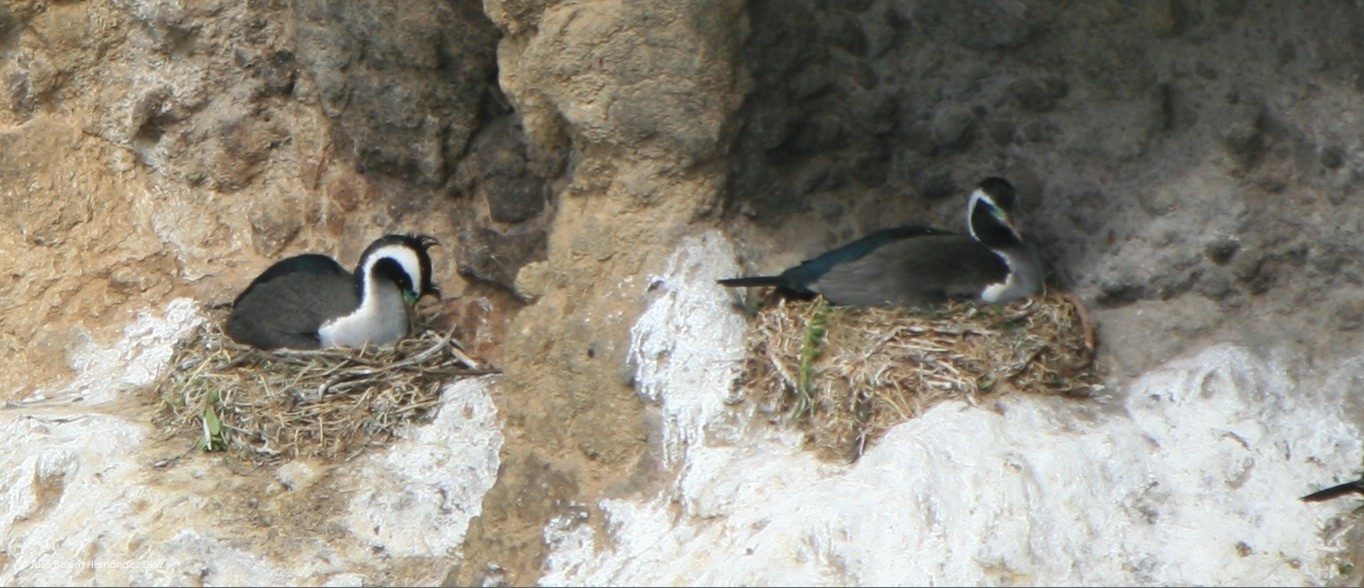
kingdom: Animalia
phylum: Chordata
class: Aves
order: Suliformes
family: Phalacrocoracidae
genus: Phalacrocorax
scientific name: Phalacrocorax punctatus
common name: Spotted shag
